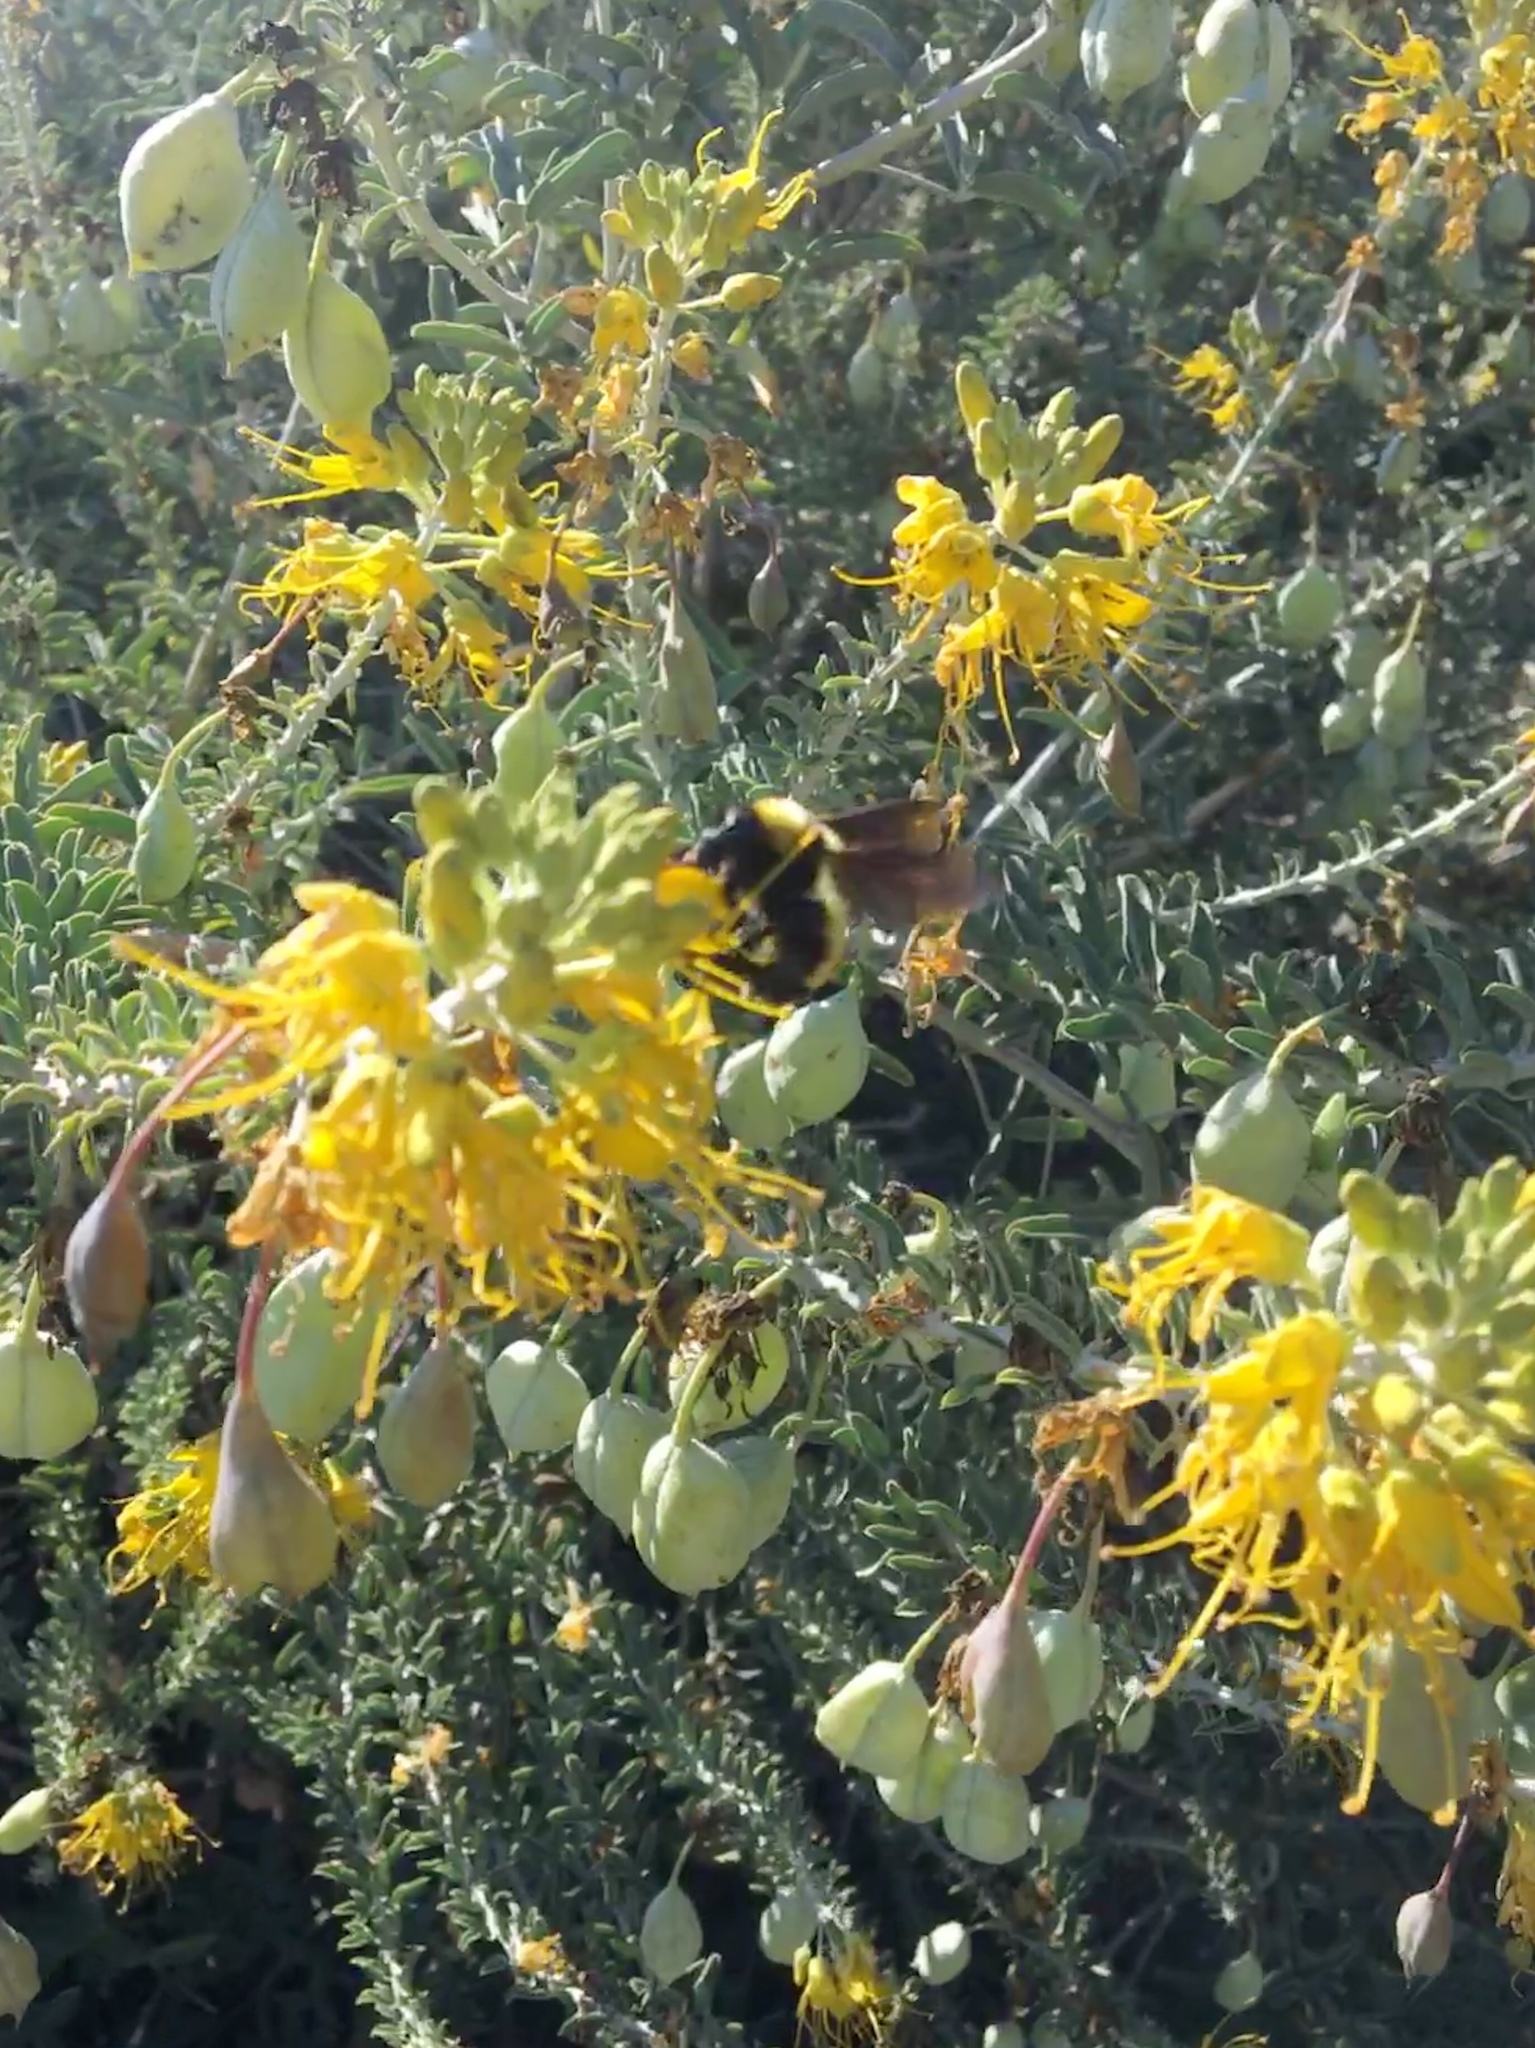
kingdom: Animalia
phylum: Arthropoda
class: Insecta
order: Hymenoptera
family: Apidae
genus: Bombus
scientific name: Bombus sonorus
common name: Sonoran bumble bee
